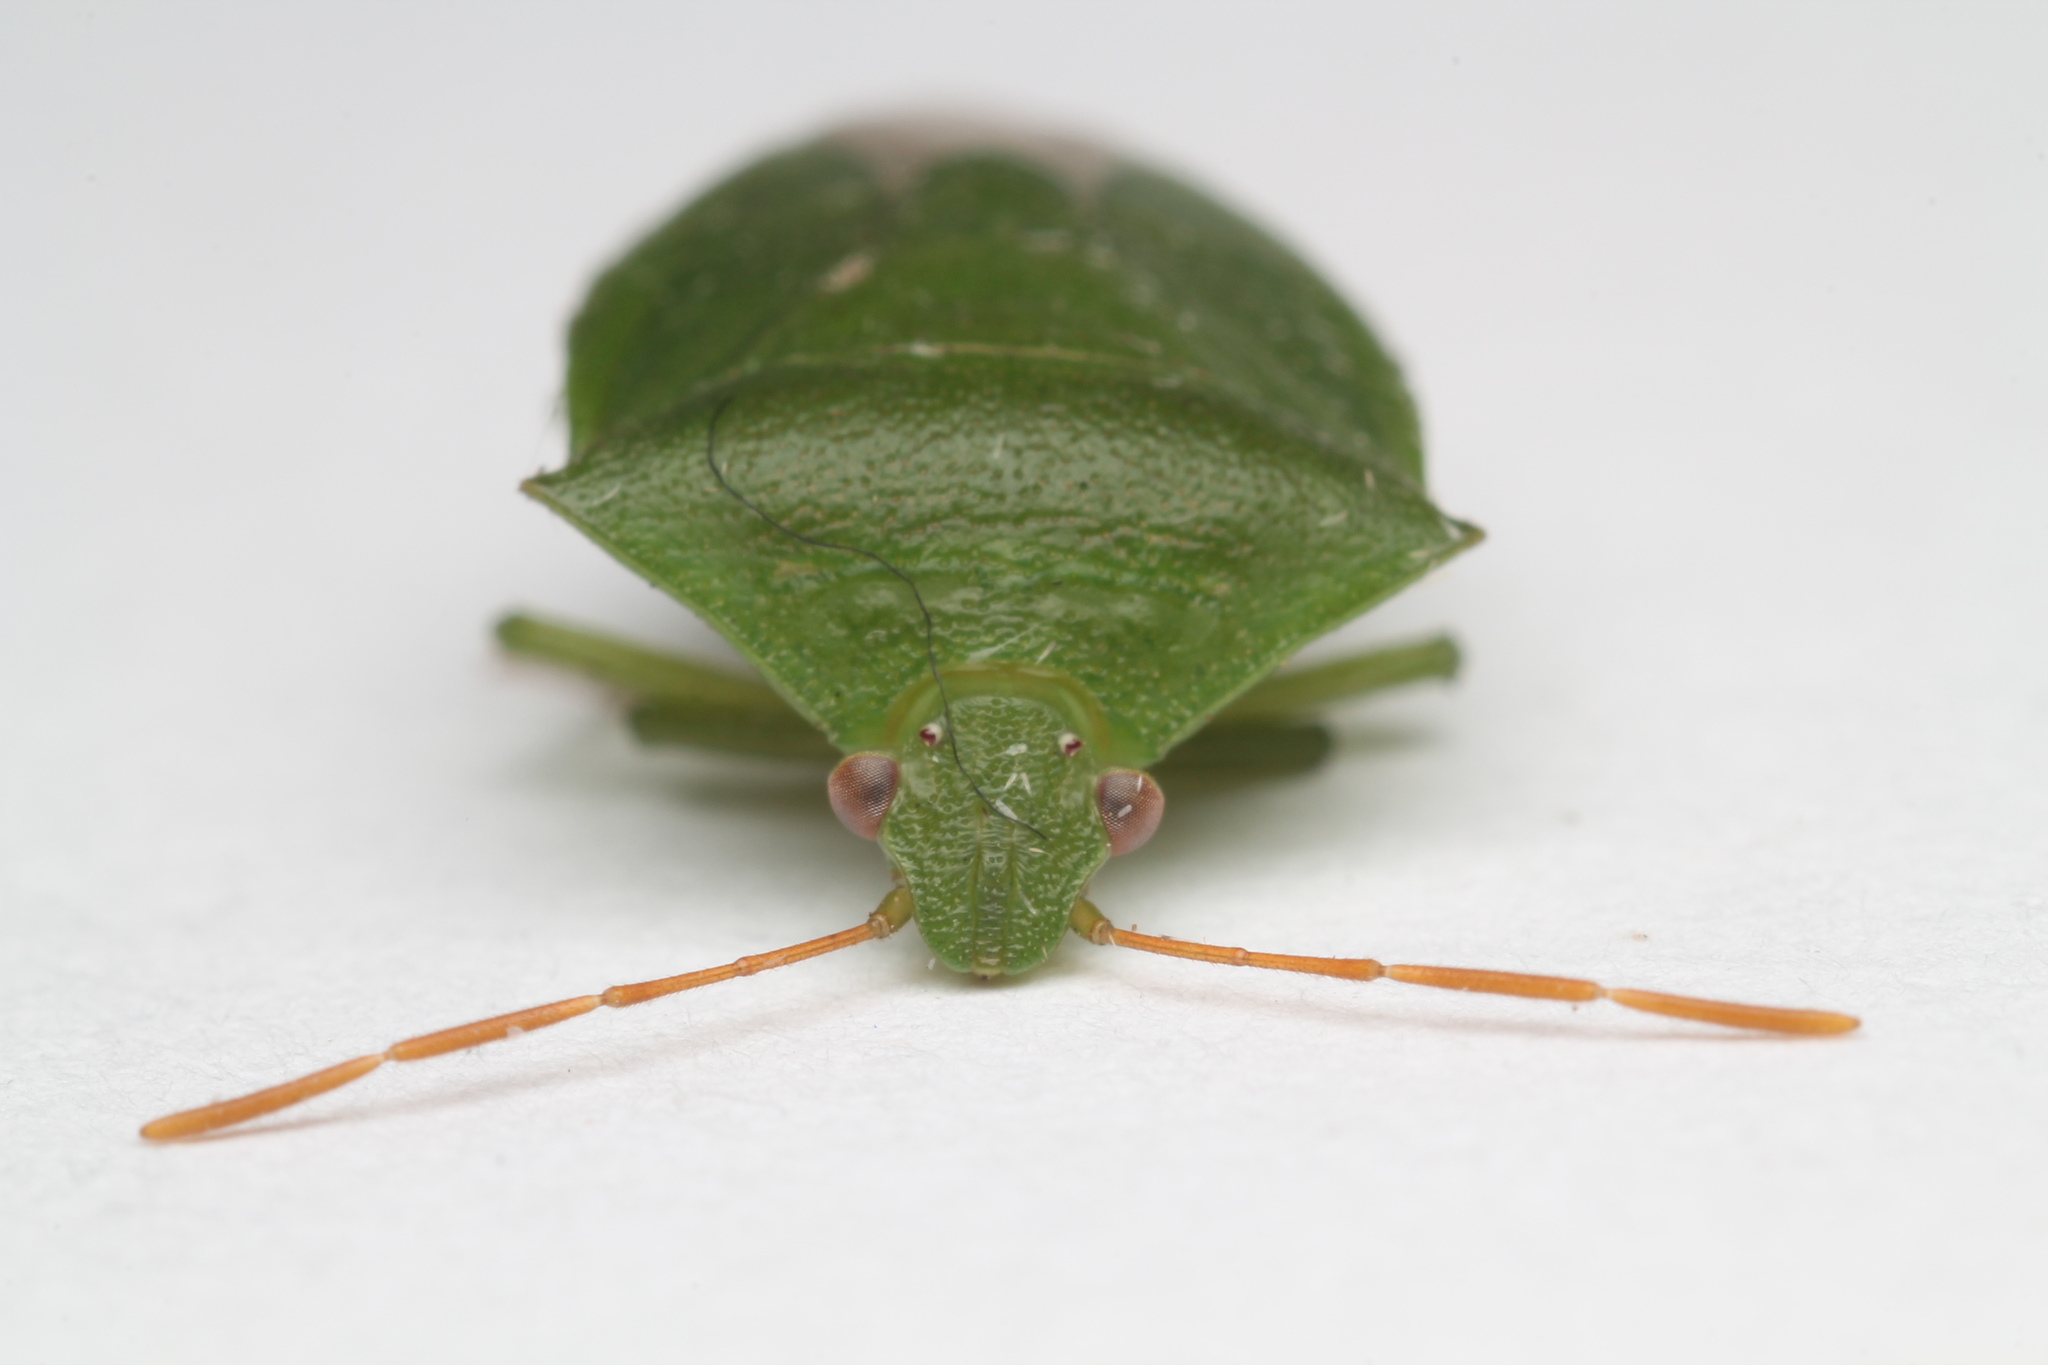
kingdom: Animalia
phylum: Arthropoda
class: Insecta
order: Hemiptera
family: Pentatomidae
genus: Cuspicona
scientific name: Cuspicona simplex
